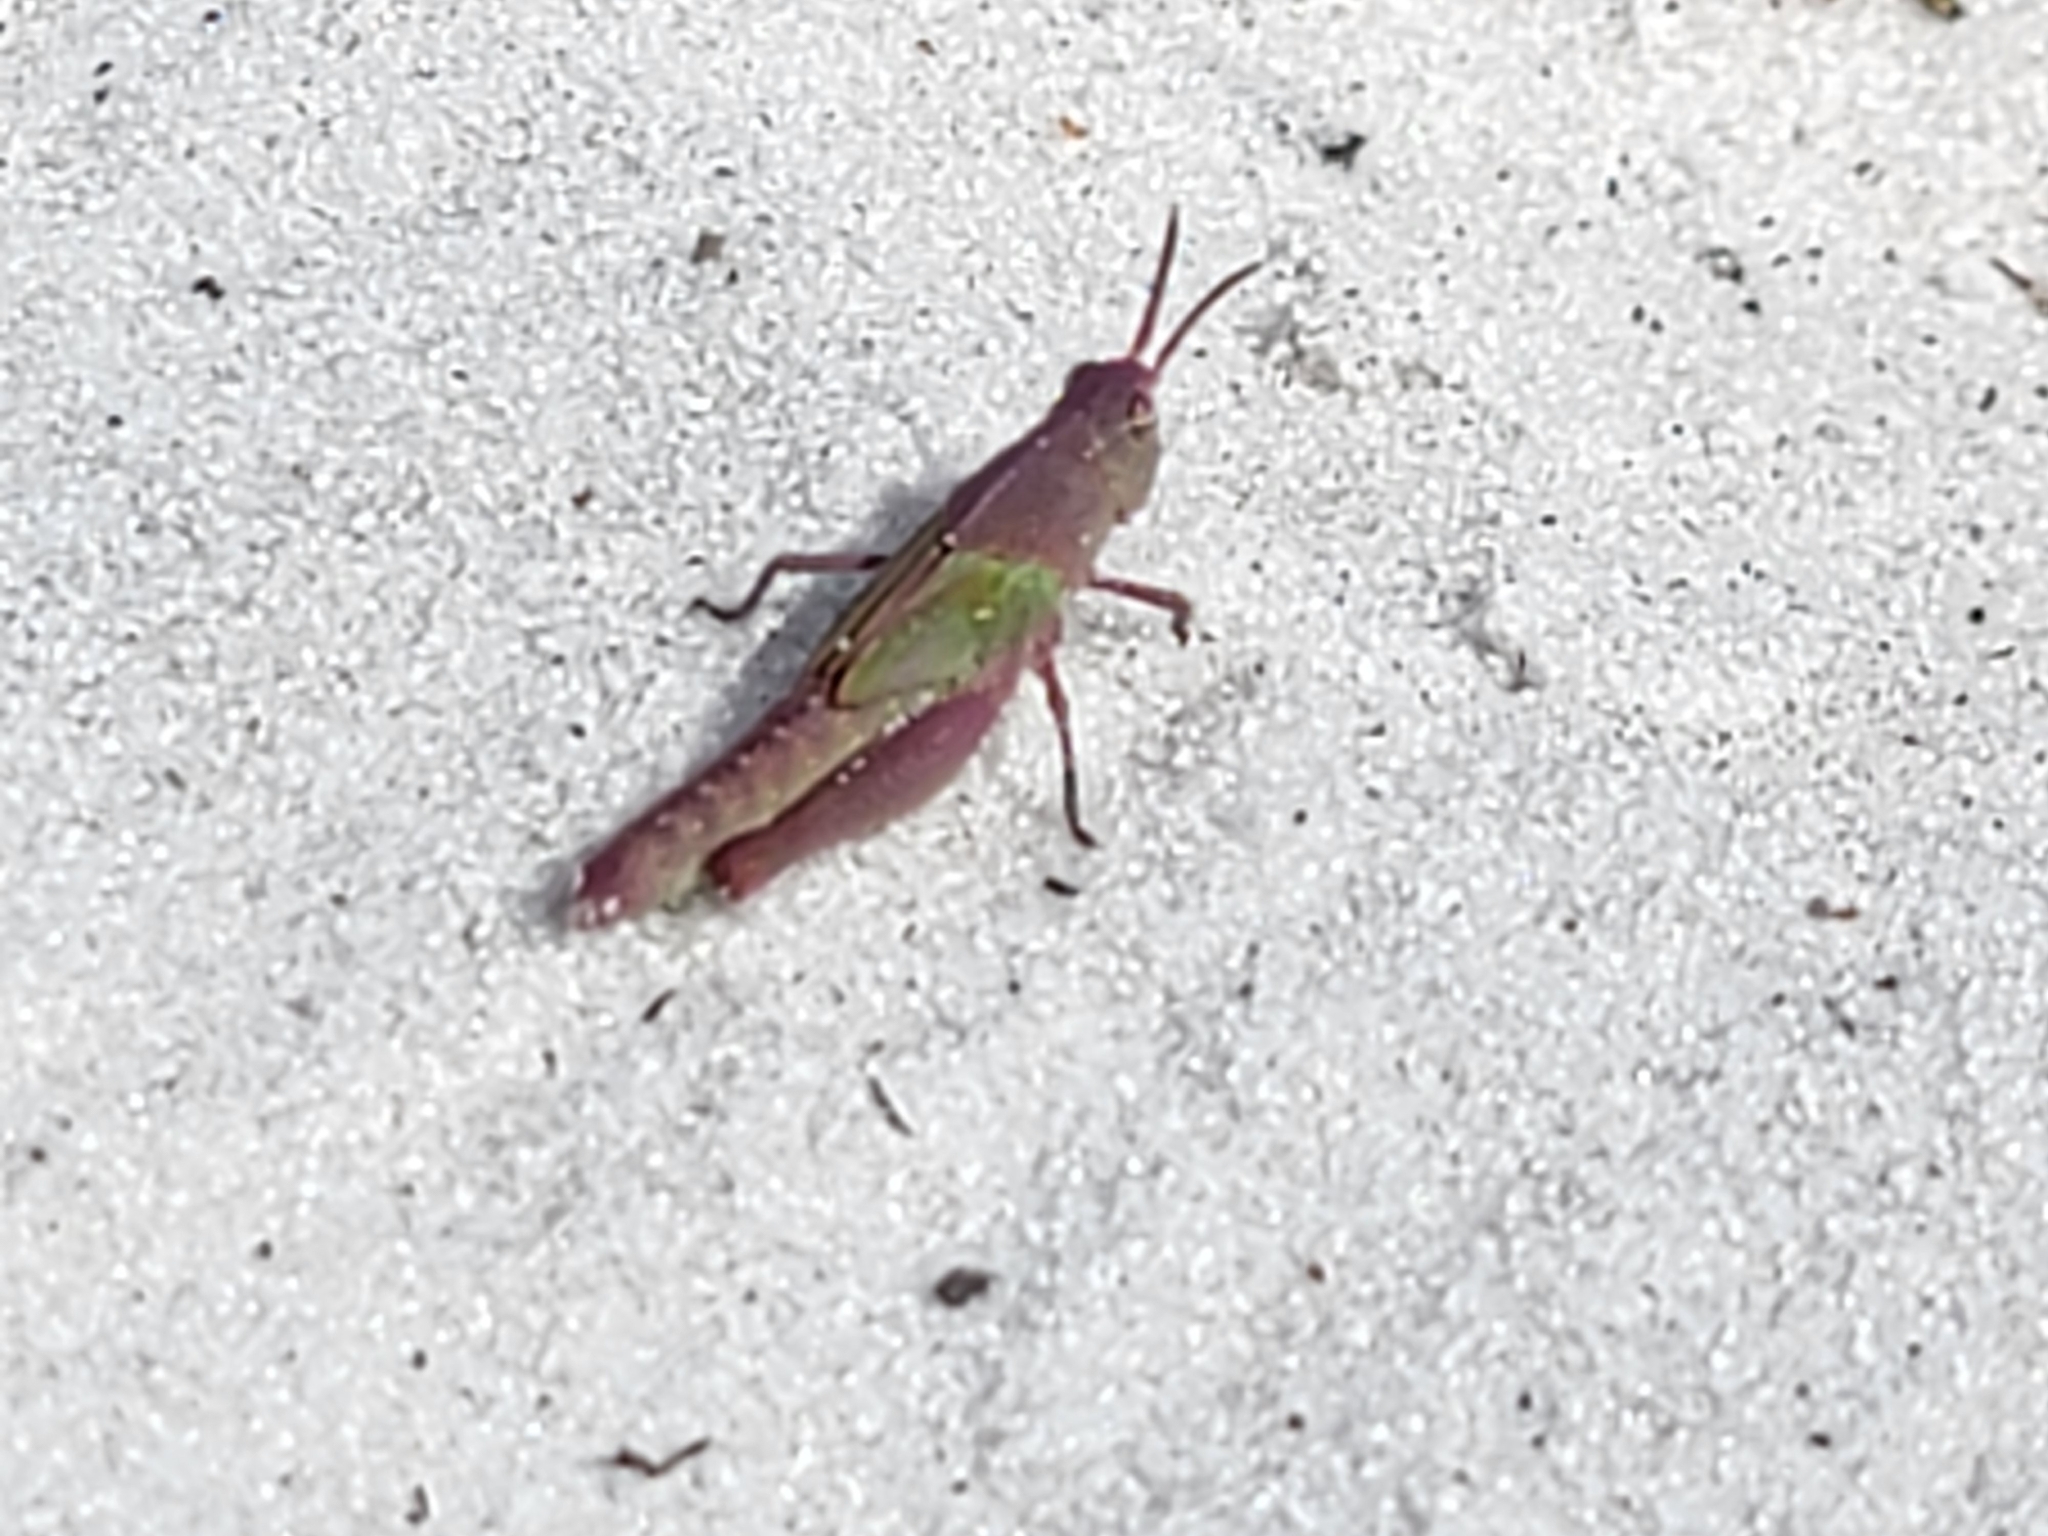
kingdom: Animalia
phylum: Arthropoda
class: Insecta
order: Orthoptera
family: Acrididae
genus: Chortophaga
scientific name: Chortophaga australior
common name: Southern green-striped grasshopper
